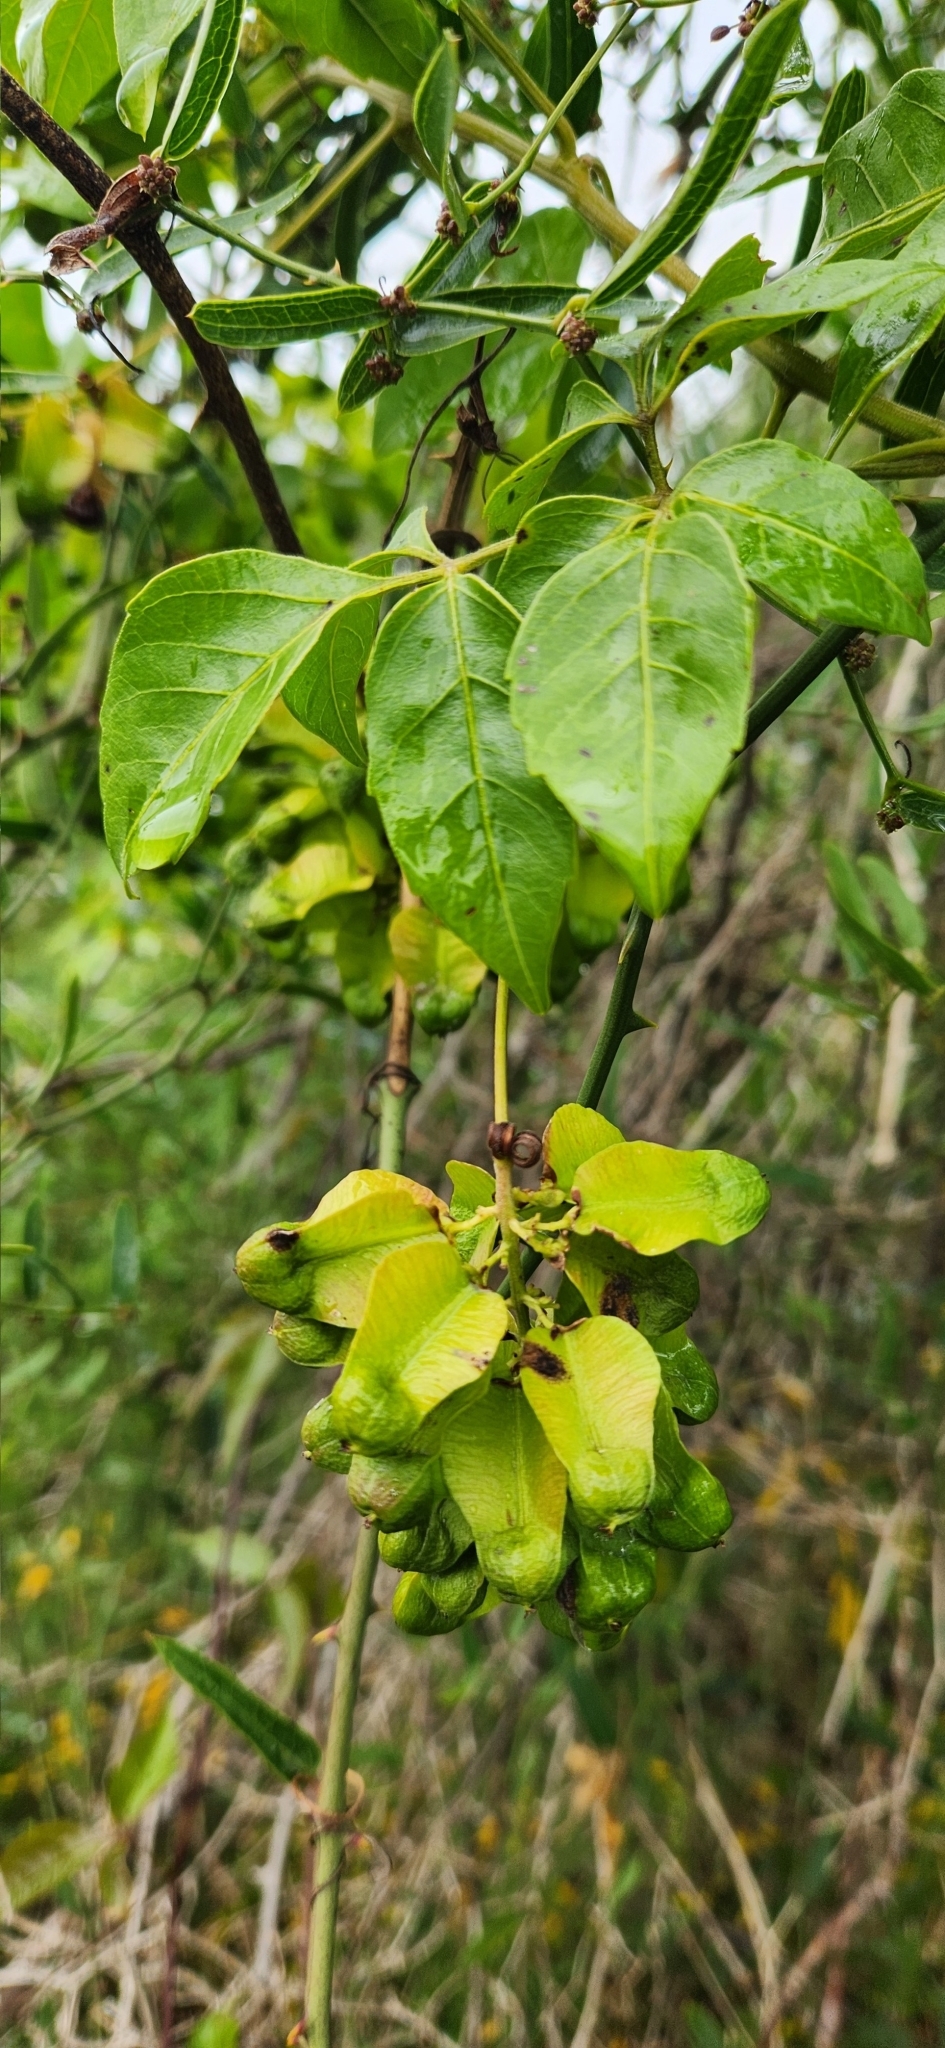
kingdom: Plantae
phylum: Tracheophyta
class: Magnoliopsida
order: Sapindales
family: Sapindaceae
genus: Serjania
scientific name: Serjania hebecarpa
